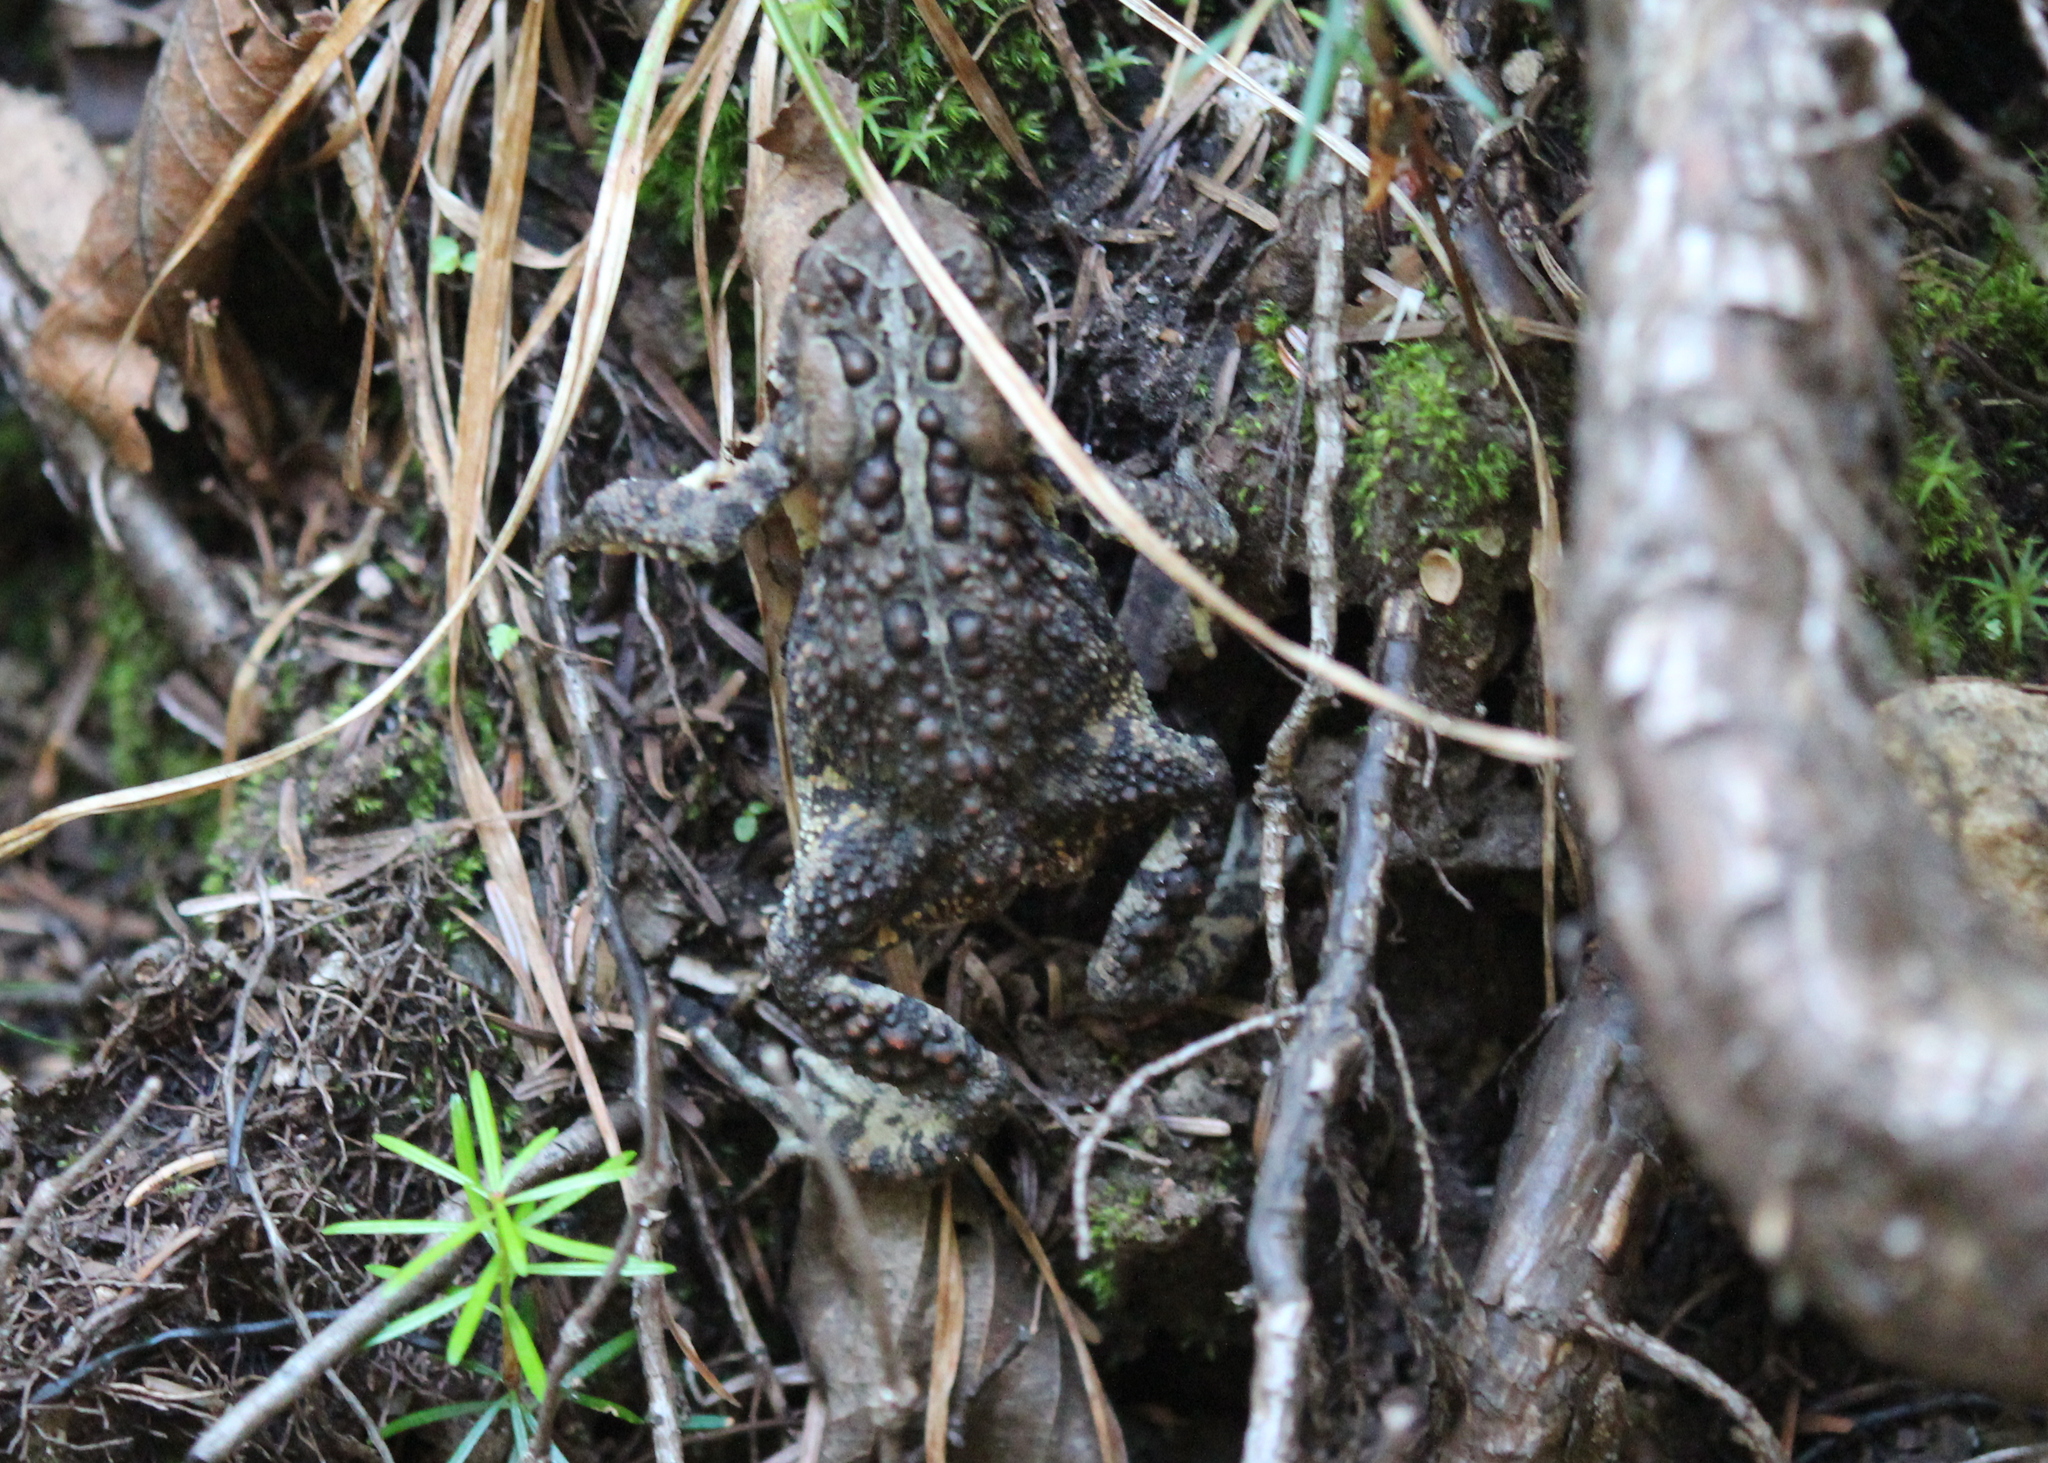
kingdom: Animalia
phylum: Chordata
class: Amphibia
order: Anura
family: Bufonidae
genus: Anaxyrus
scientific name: Anaxyrus americanus
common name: American toad
